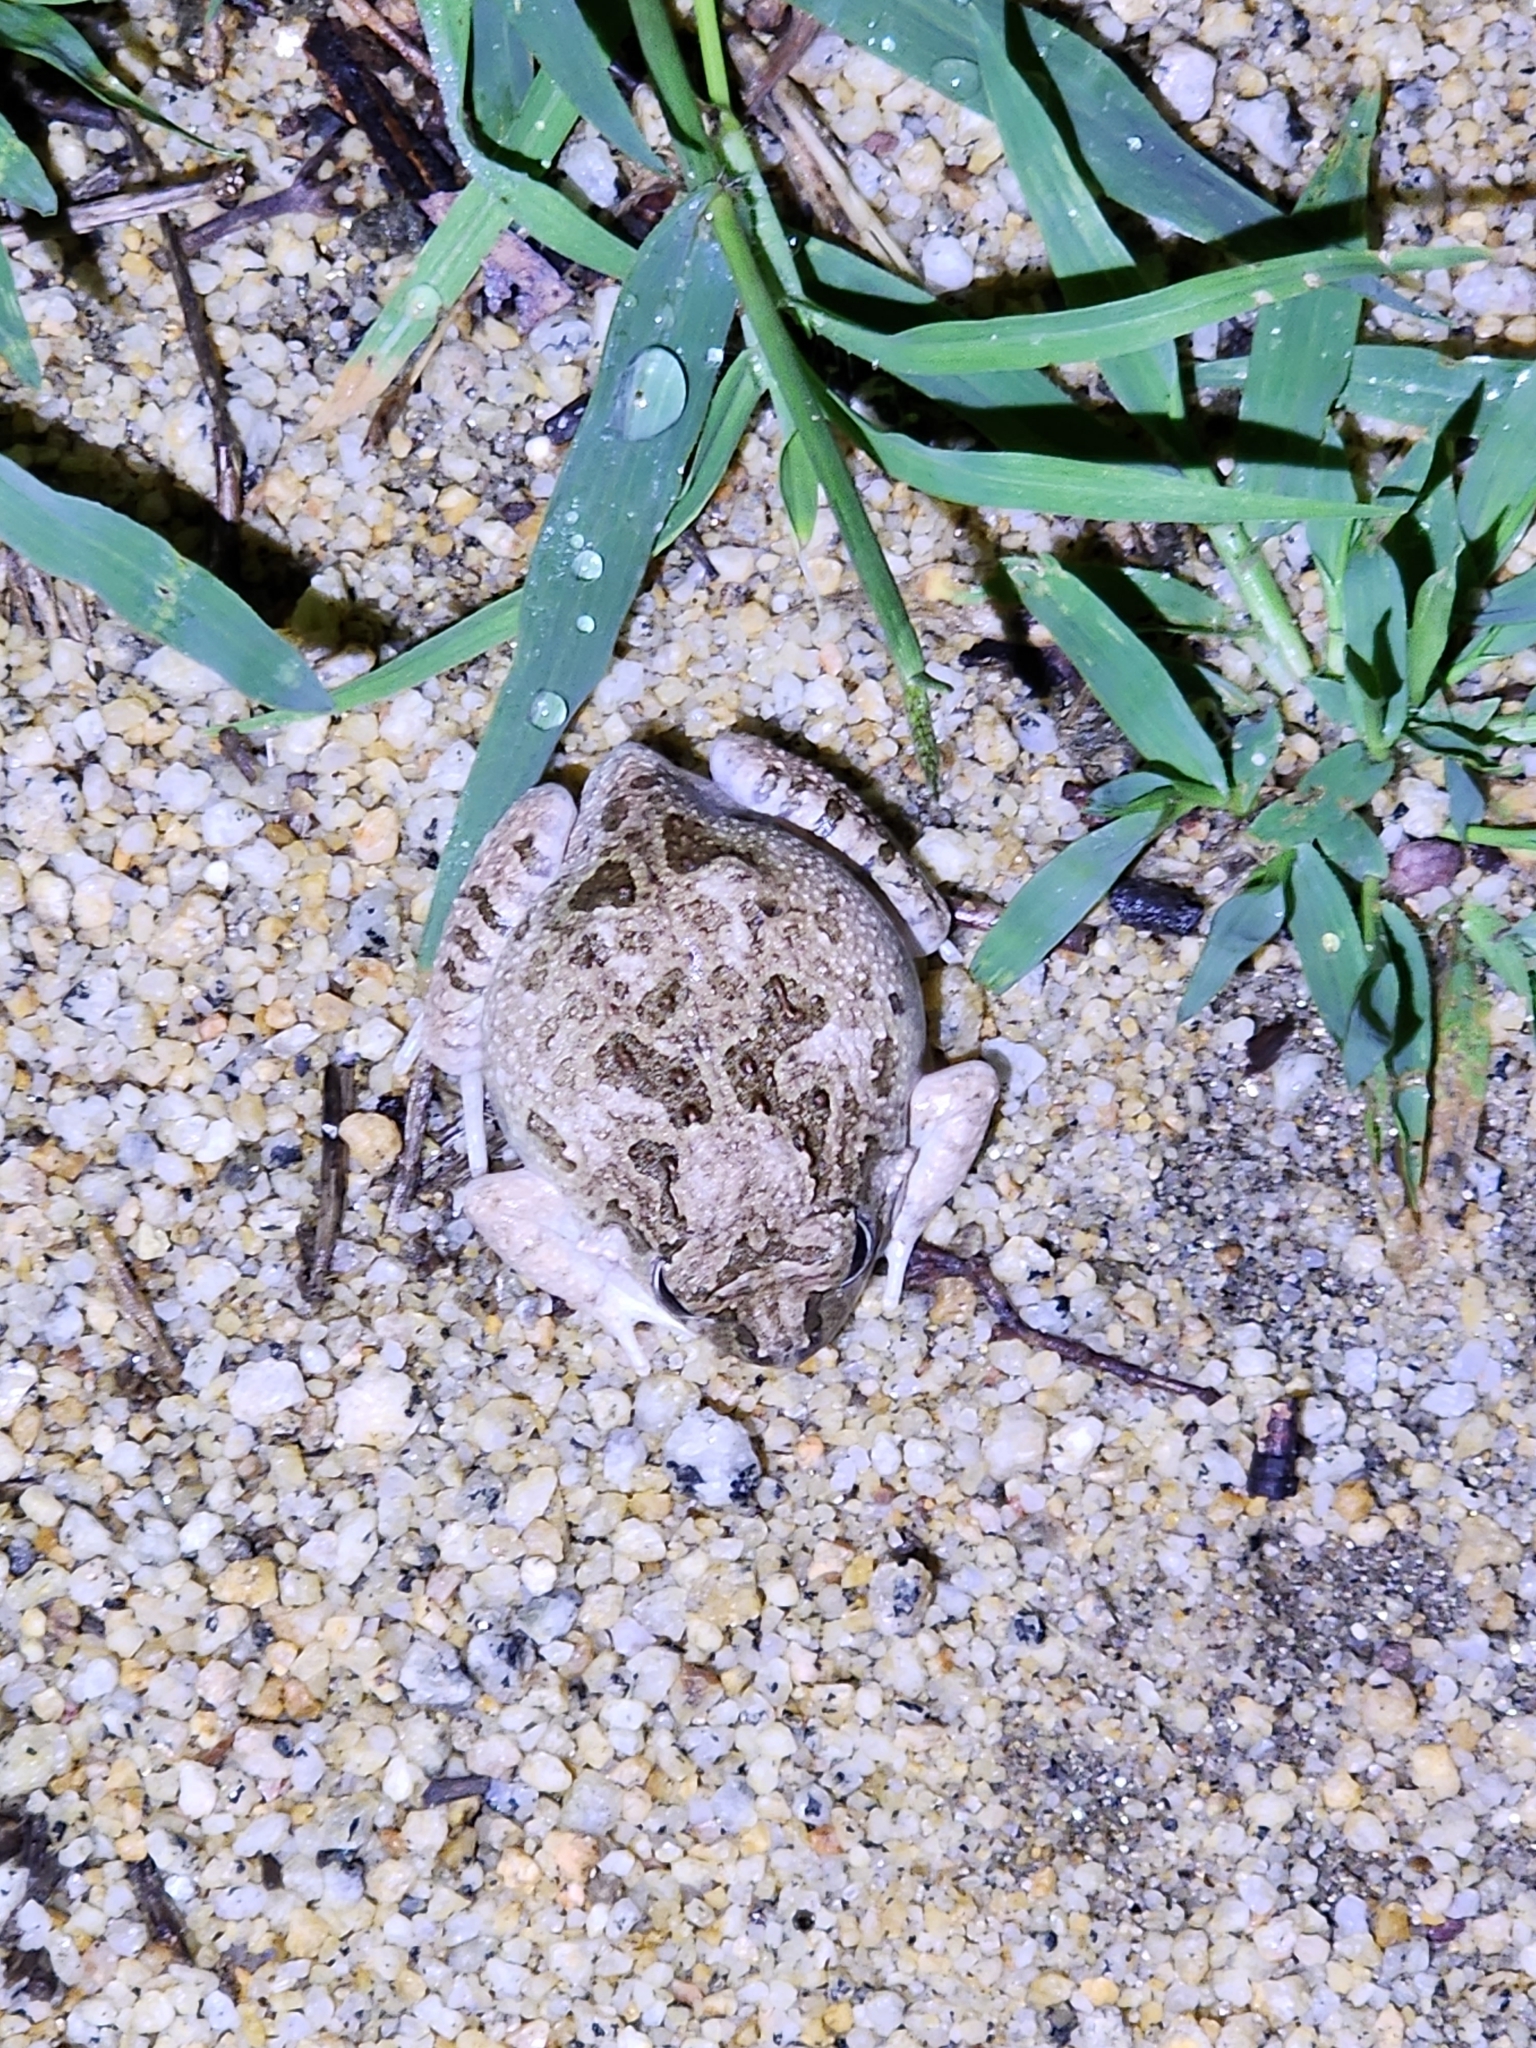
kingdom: Animalia
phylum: Chordata
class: Amphibia
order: Anura
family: Limnodynastidae
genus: Platyplectrum
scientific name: Platyplectrum ornatum
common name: Ornate burrowing frog
